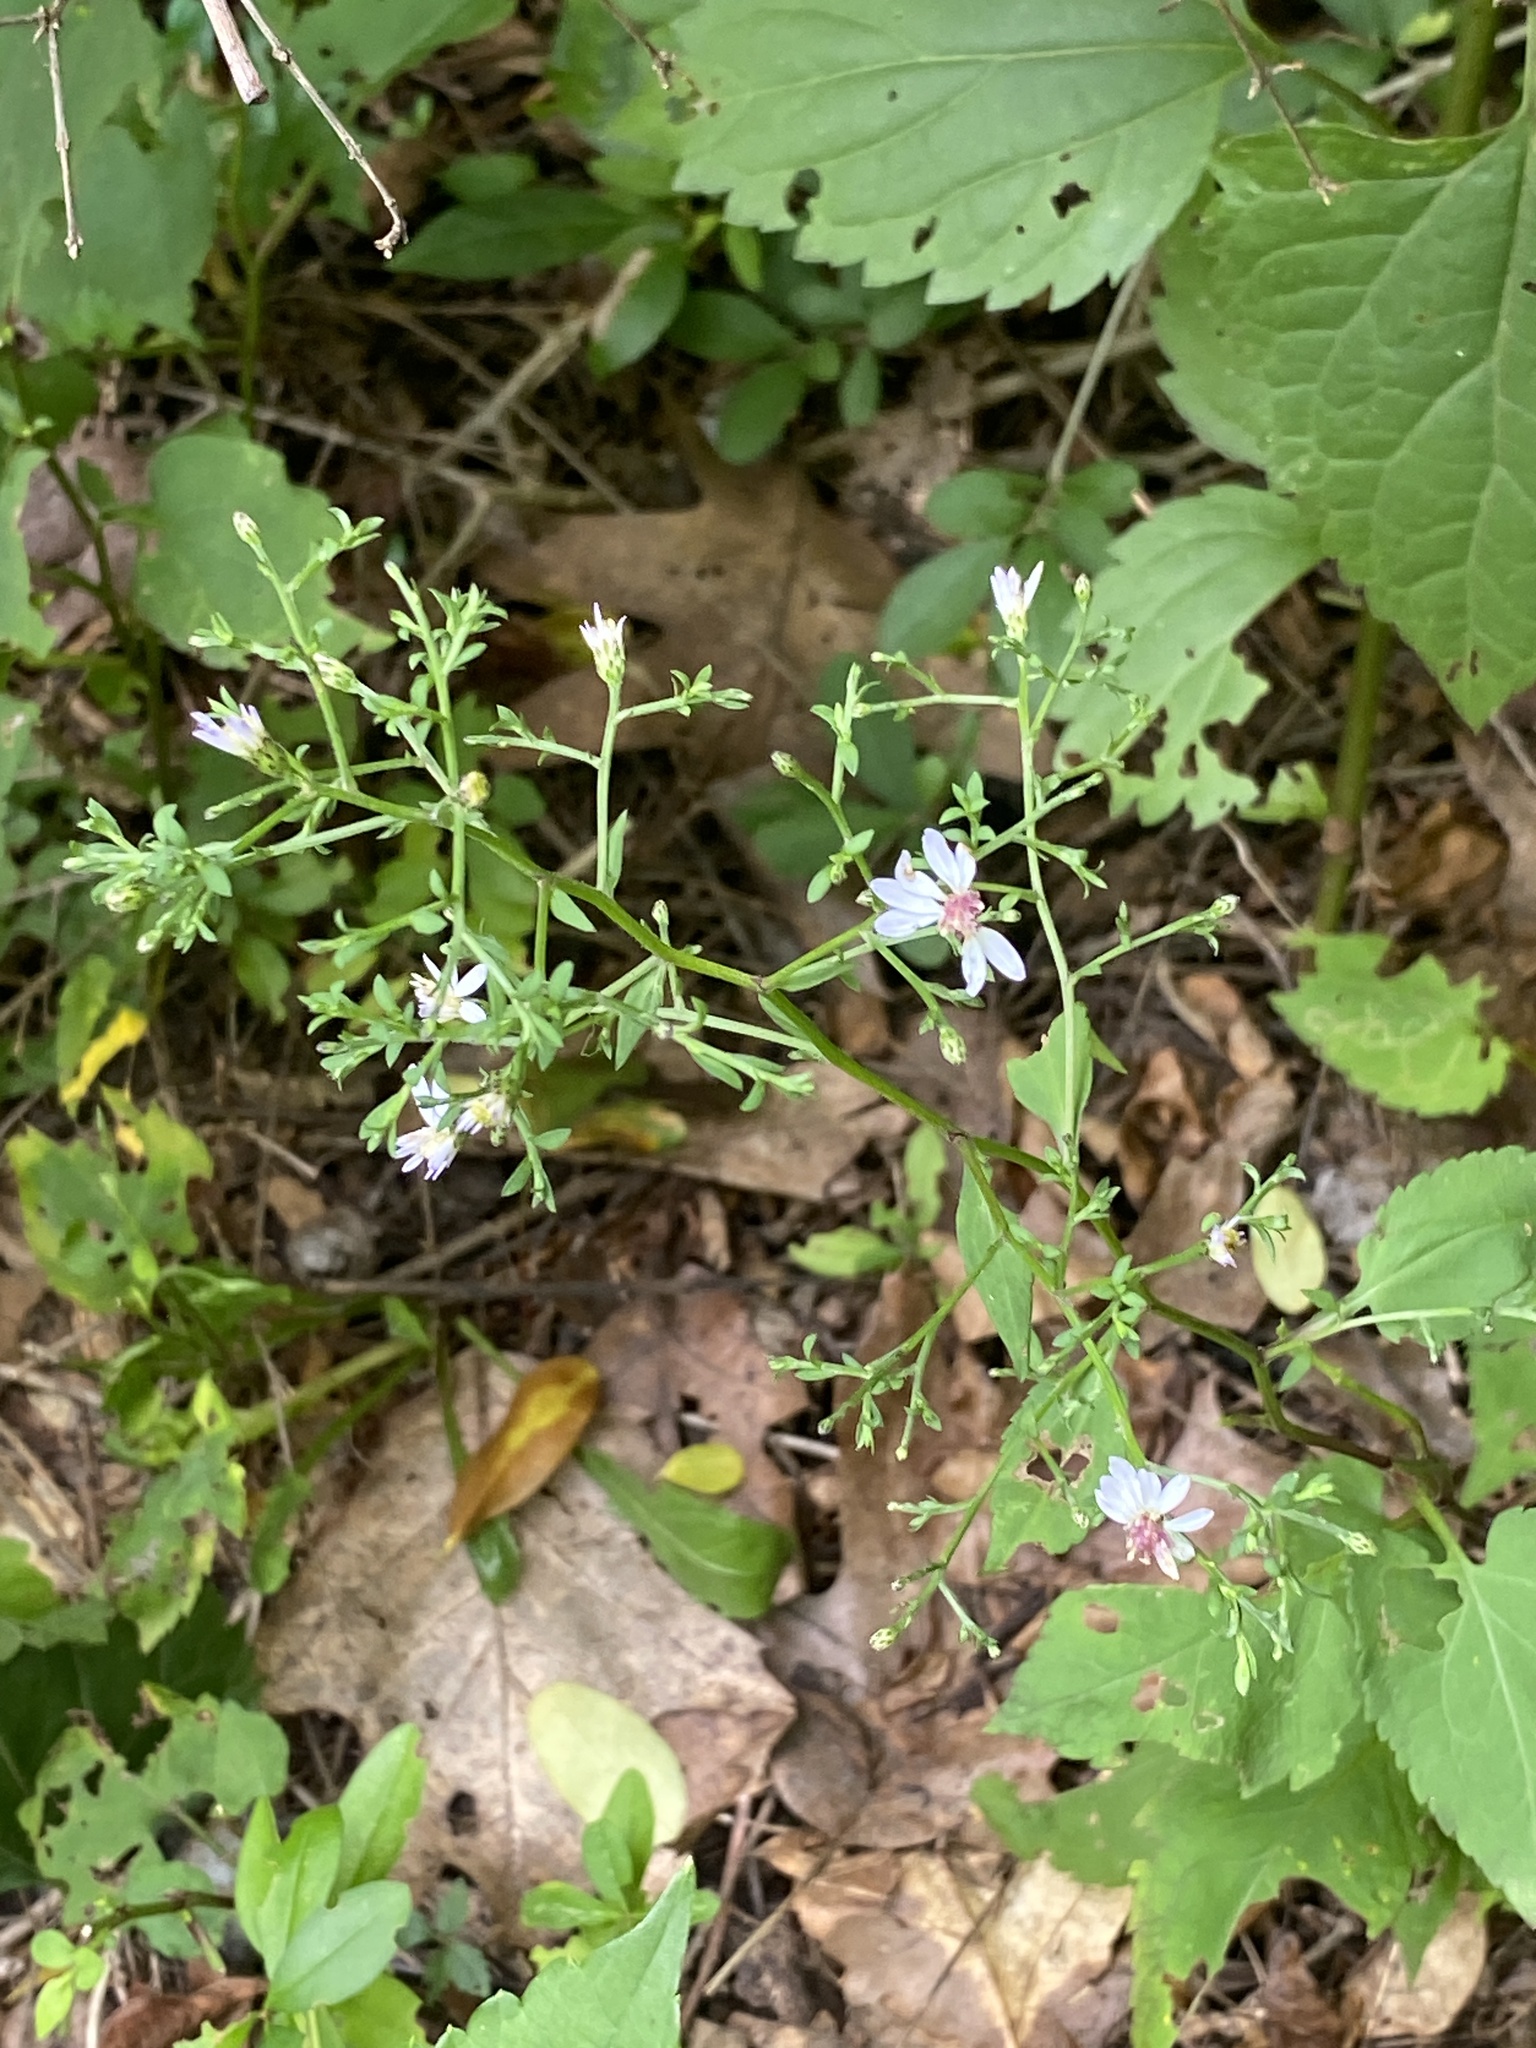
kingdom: Plantae
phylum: Tracheophyta
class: Magnoliopsida
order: Asterales
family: Asteraceae
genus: Symphyotrichum
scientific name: Symphyotrichum cordifolium
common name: Beeweed
